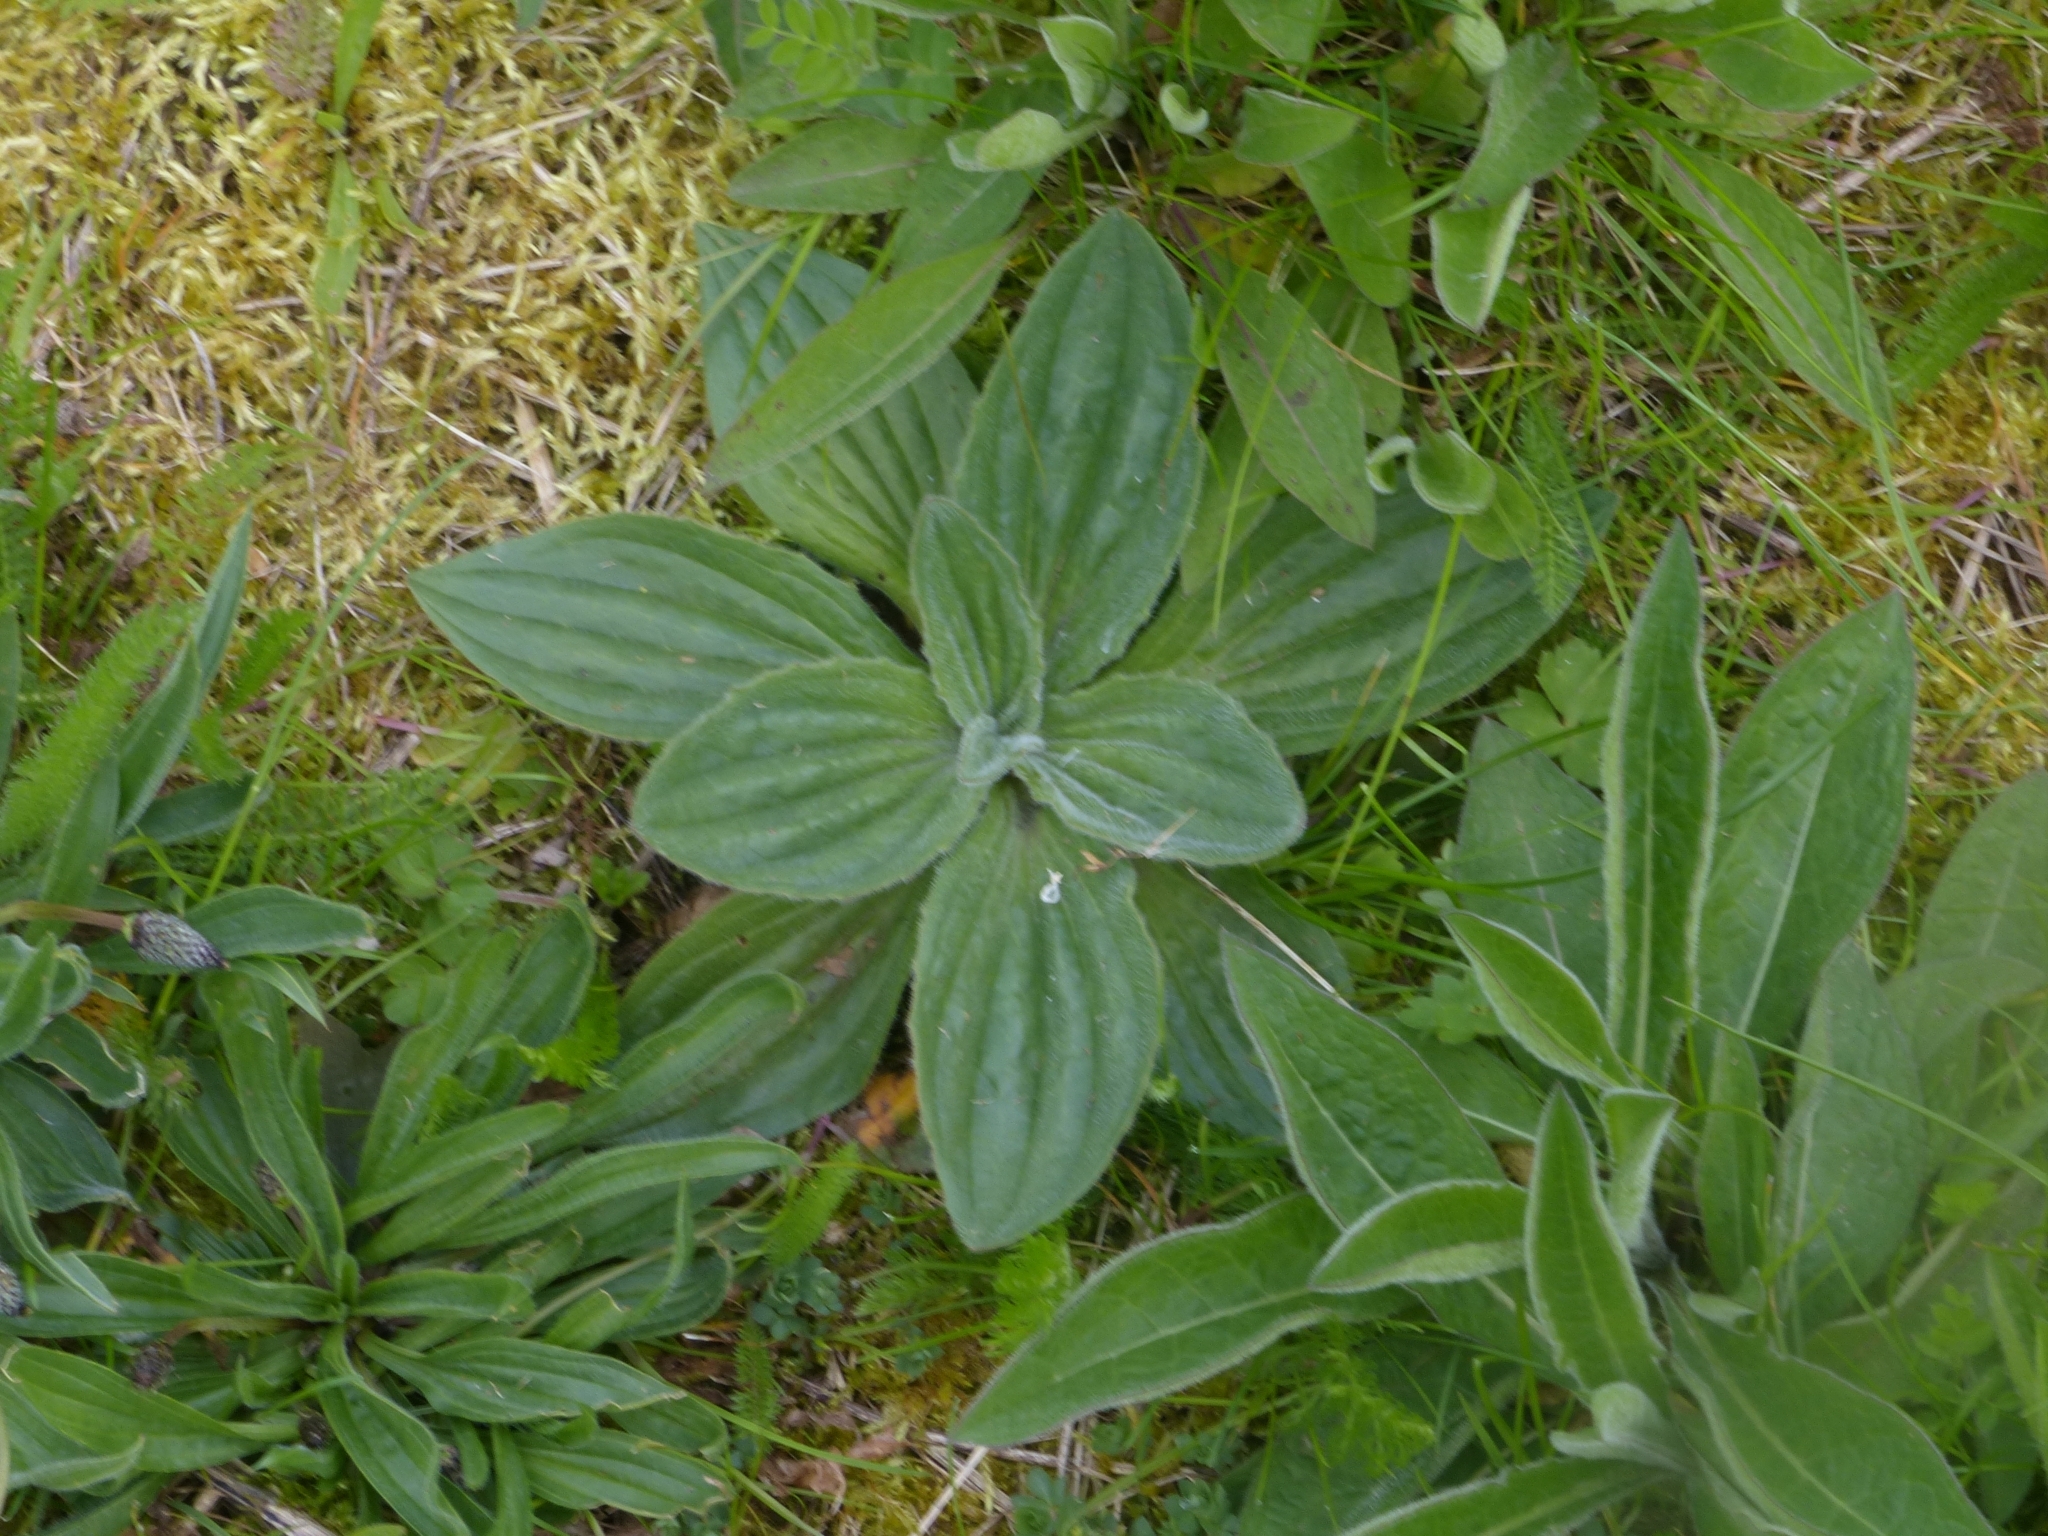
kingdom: Plantae
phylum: Tracheophyta
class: Magnoliopsida
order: Lamiales
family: Plantaginaceae
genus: Plantago
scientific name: Plantago media
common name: Hoary plantain
